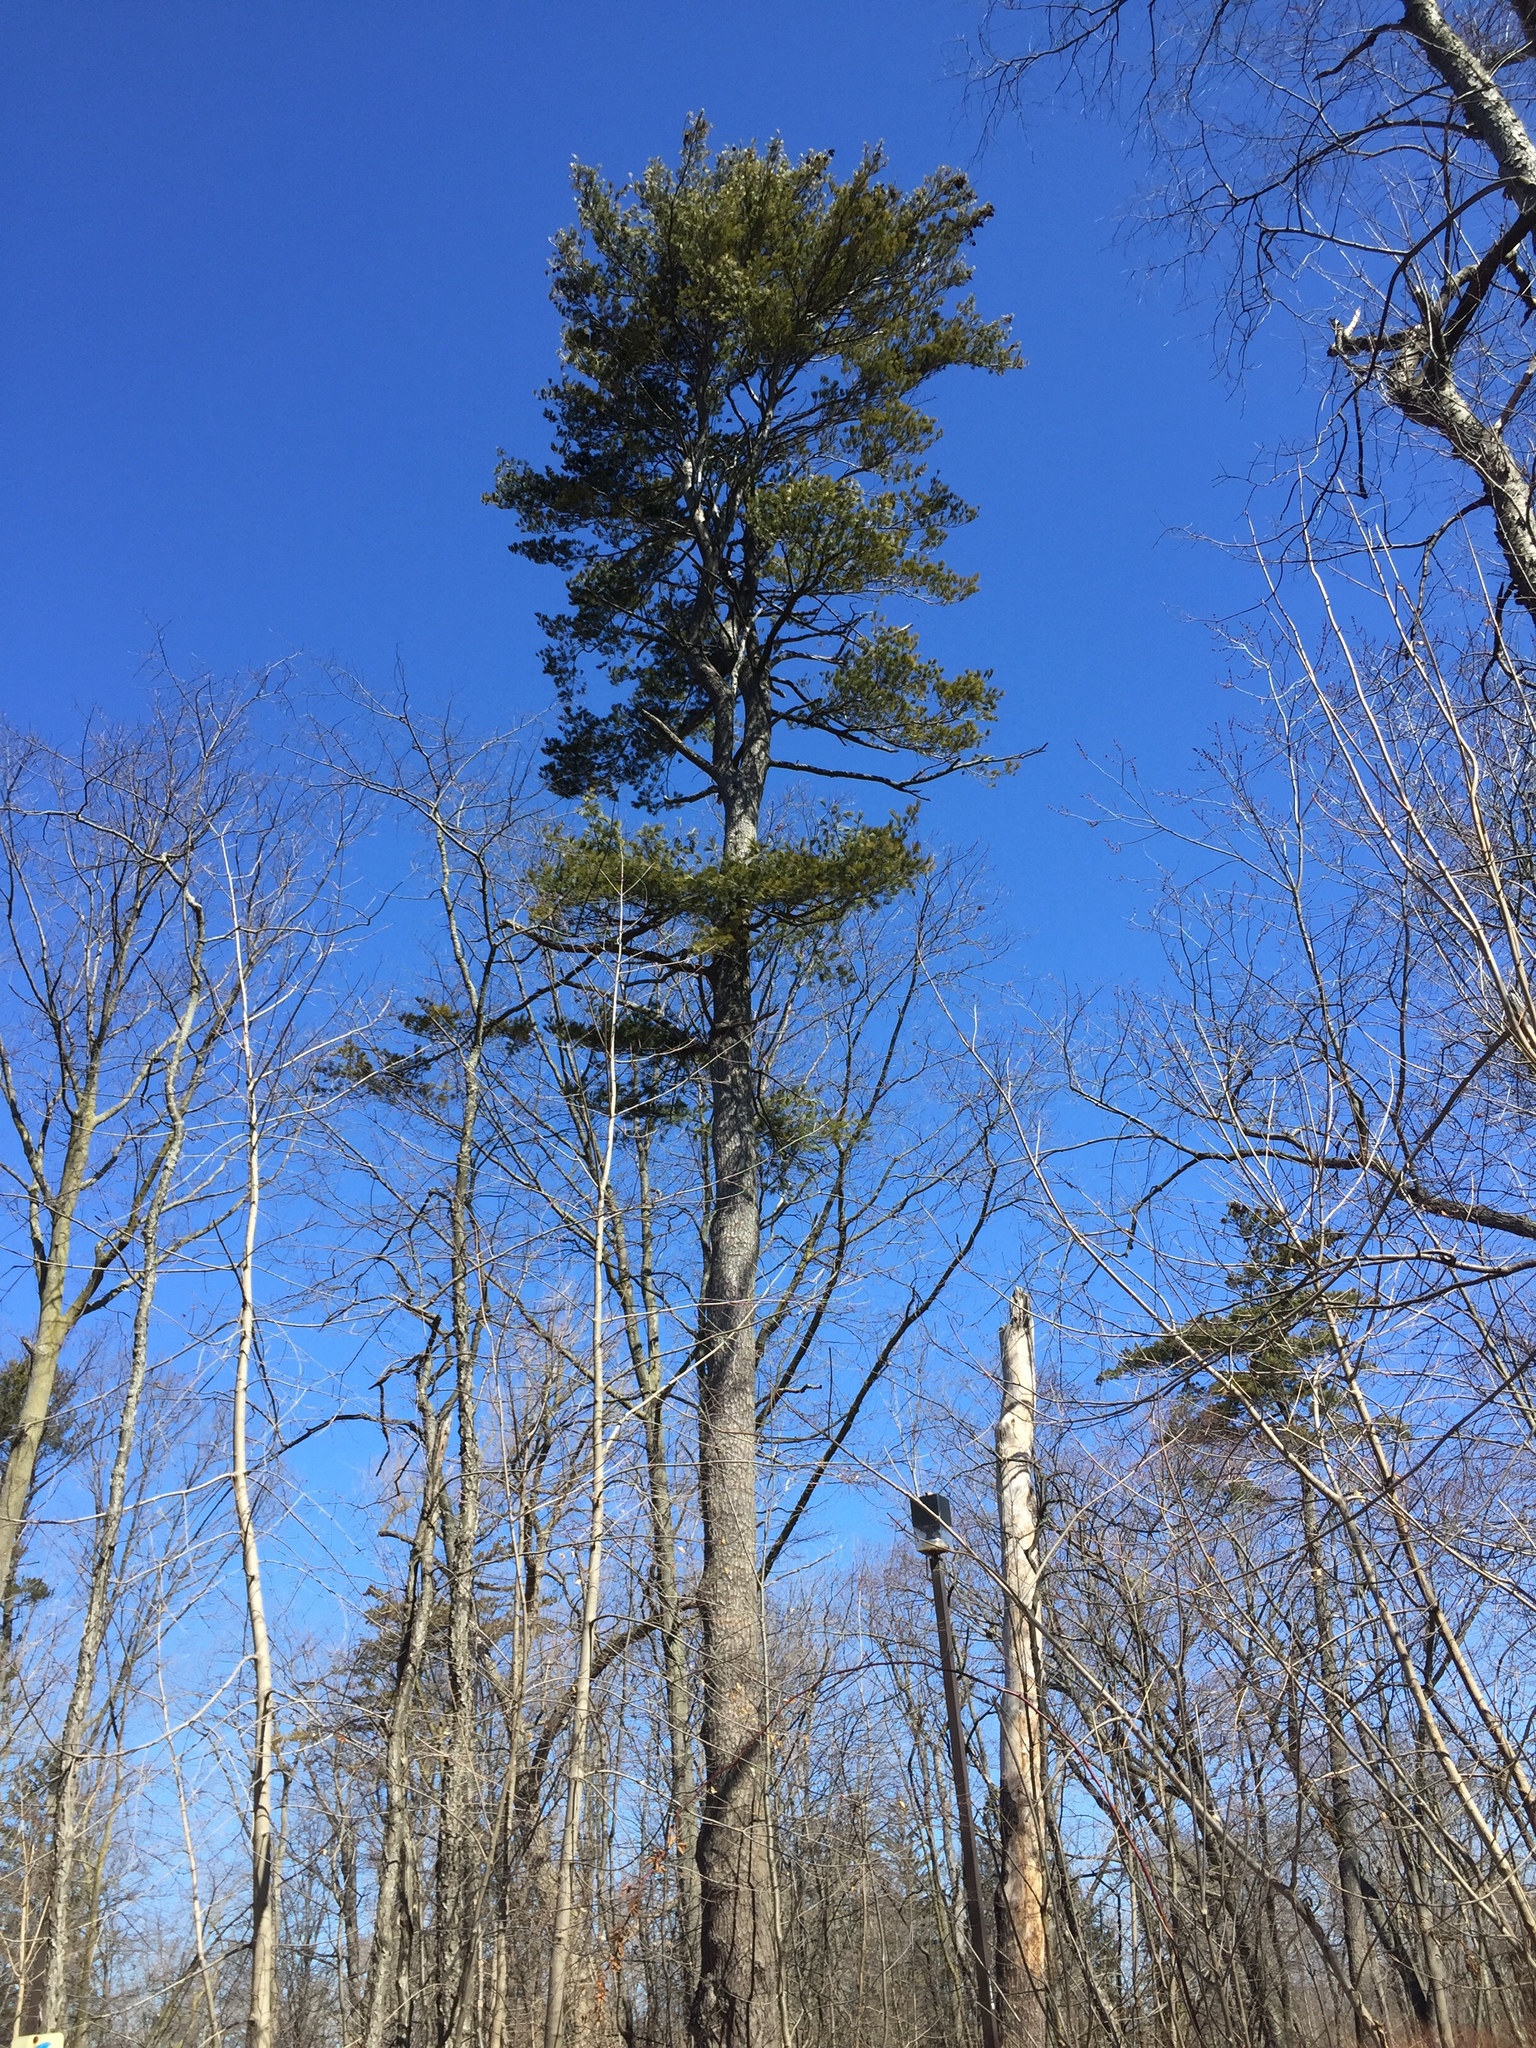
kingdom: Plantae
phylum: Tracheophyta
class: Pinopsida
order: Pinales
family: Pinaceae
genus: Pinus
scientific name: Pinus strobus
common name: Weymouth pine
